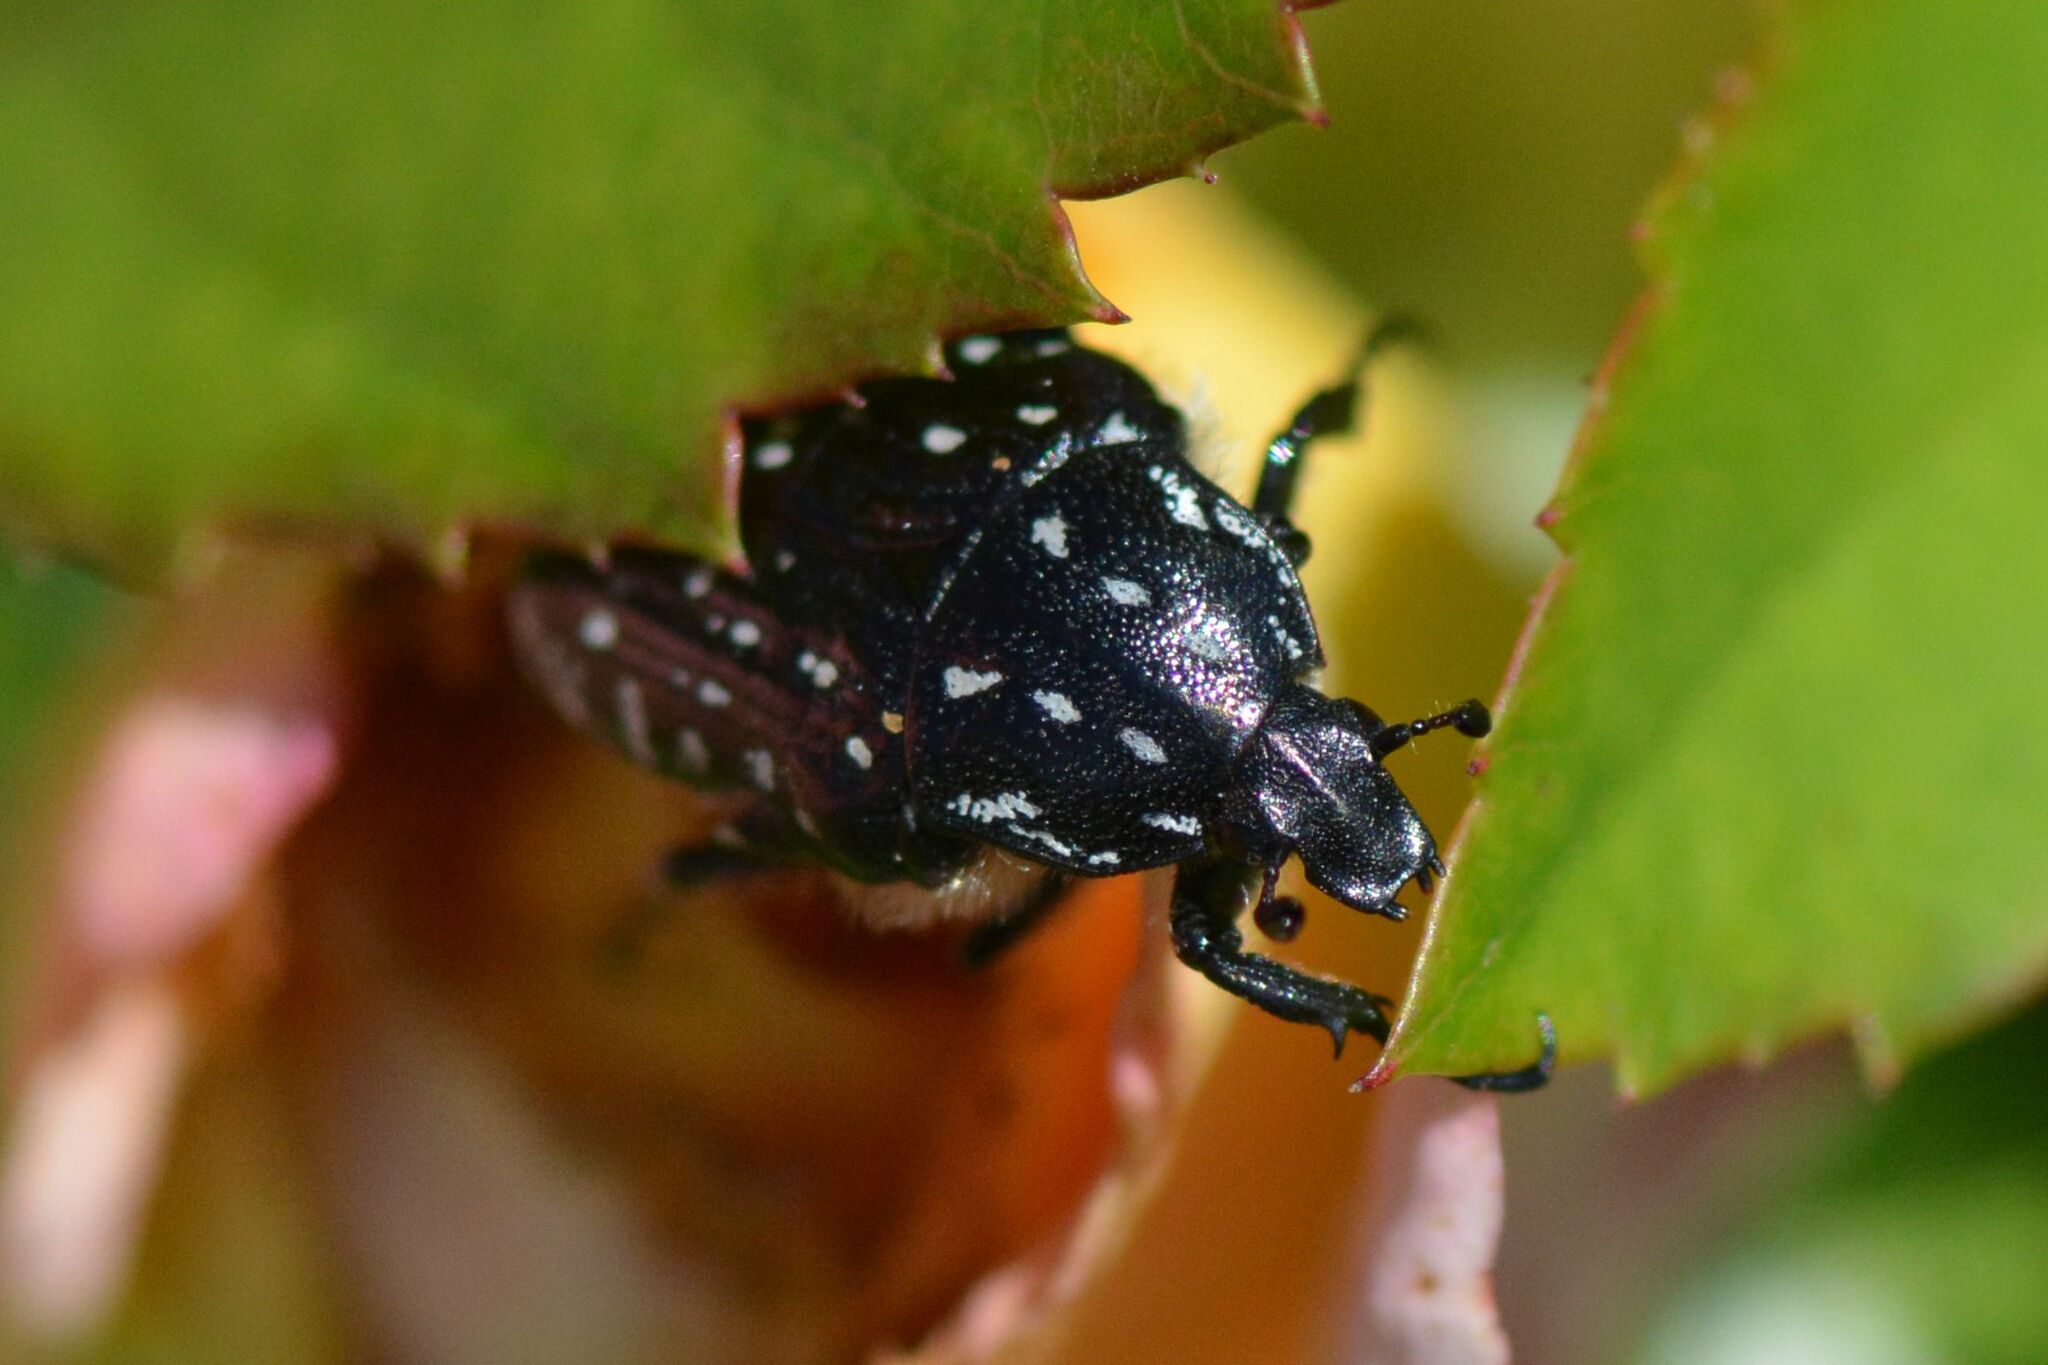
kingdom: Animalia
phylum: Arthropoda
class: Insecta
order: Coleoptera
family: Scarabaeidae
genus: Oxythyrea
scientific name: Oxythyrea funesta
